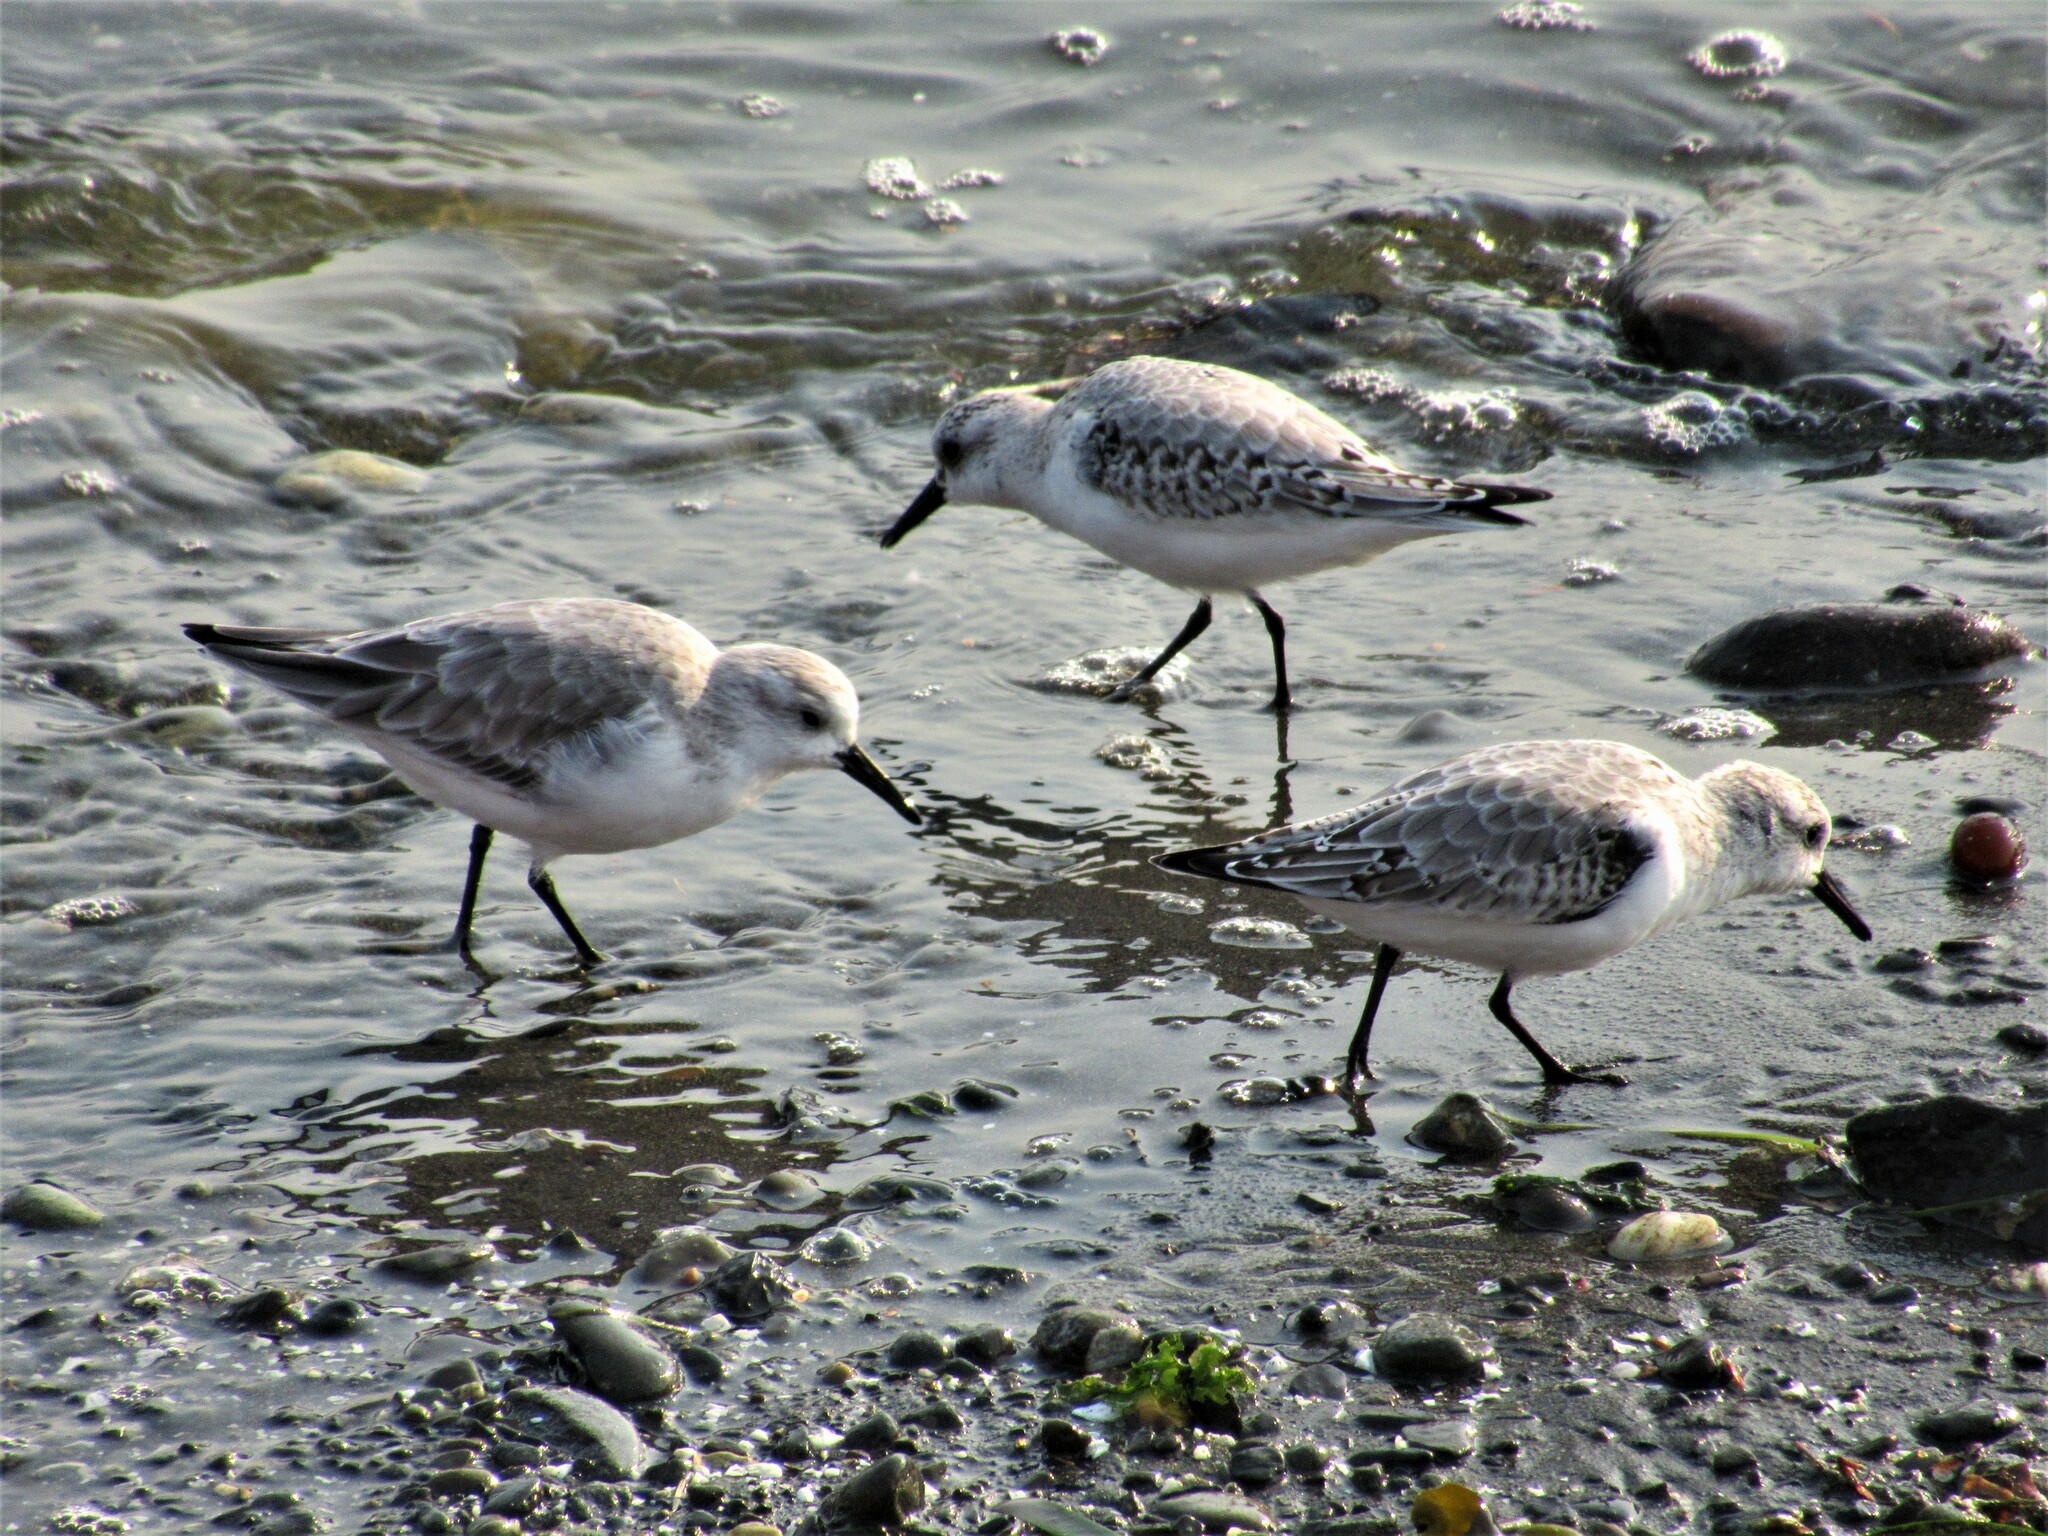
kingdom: Animalia
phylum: Chordata
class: Aves
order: Charadriiformes
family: Scolopacidae
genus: Calidris
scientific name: Calidris alba
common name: Sanderling
